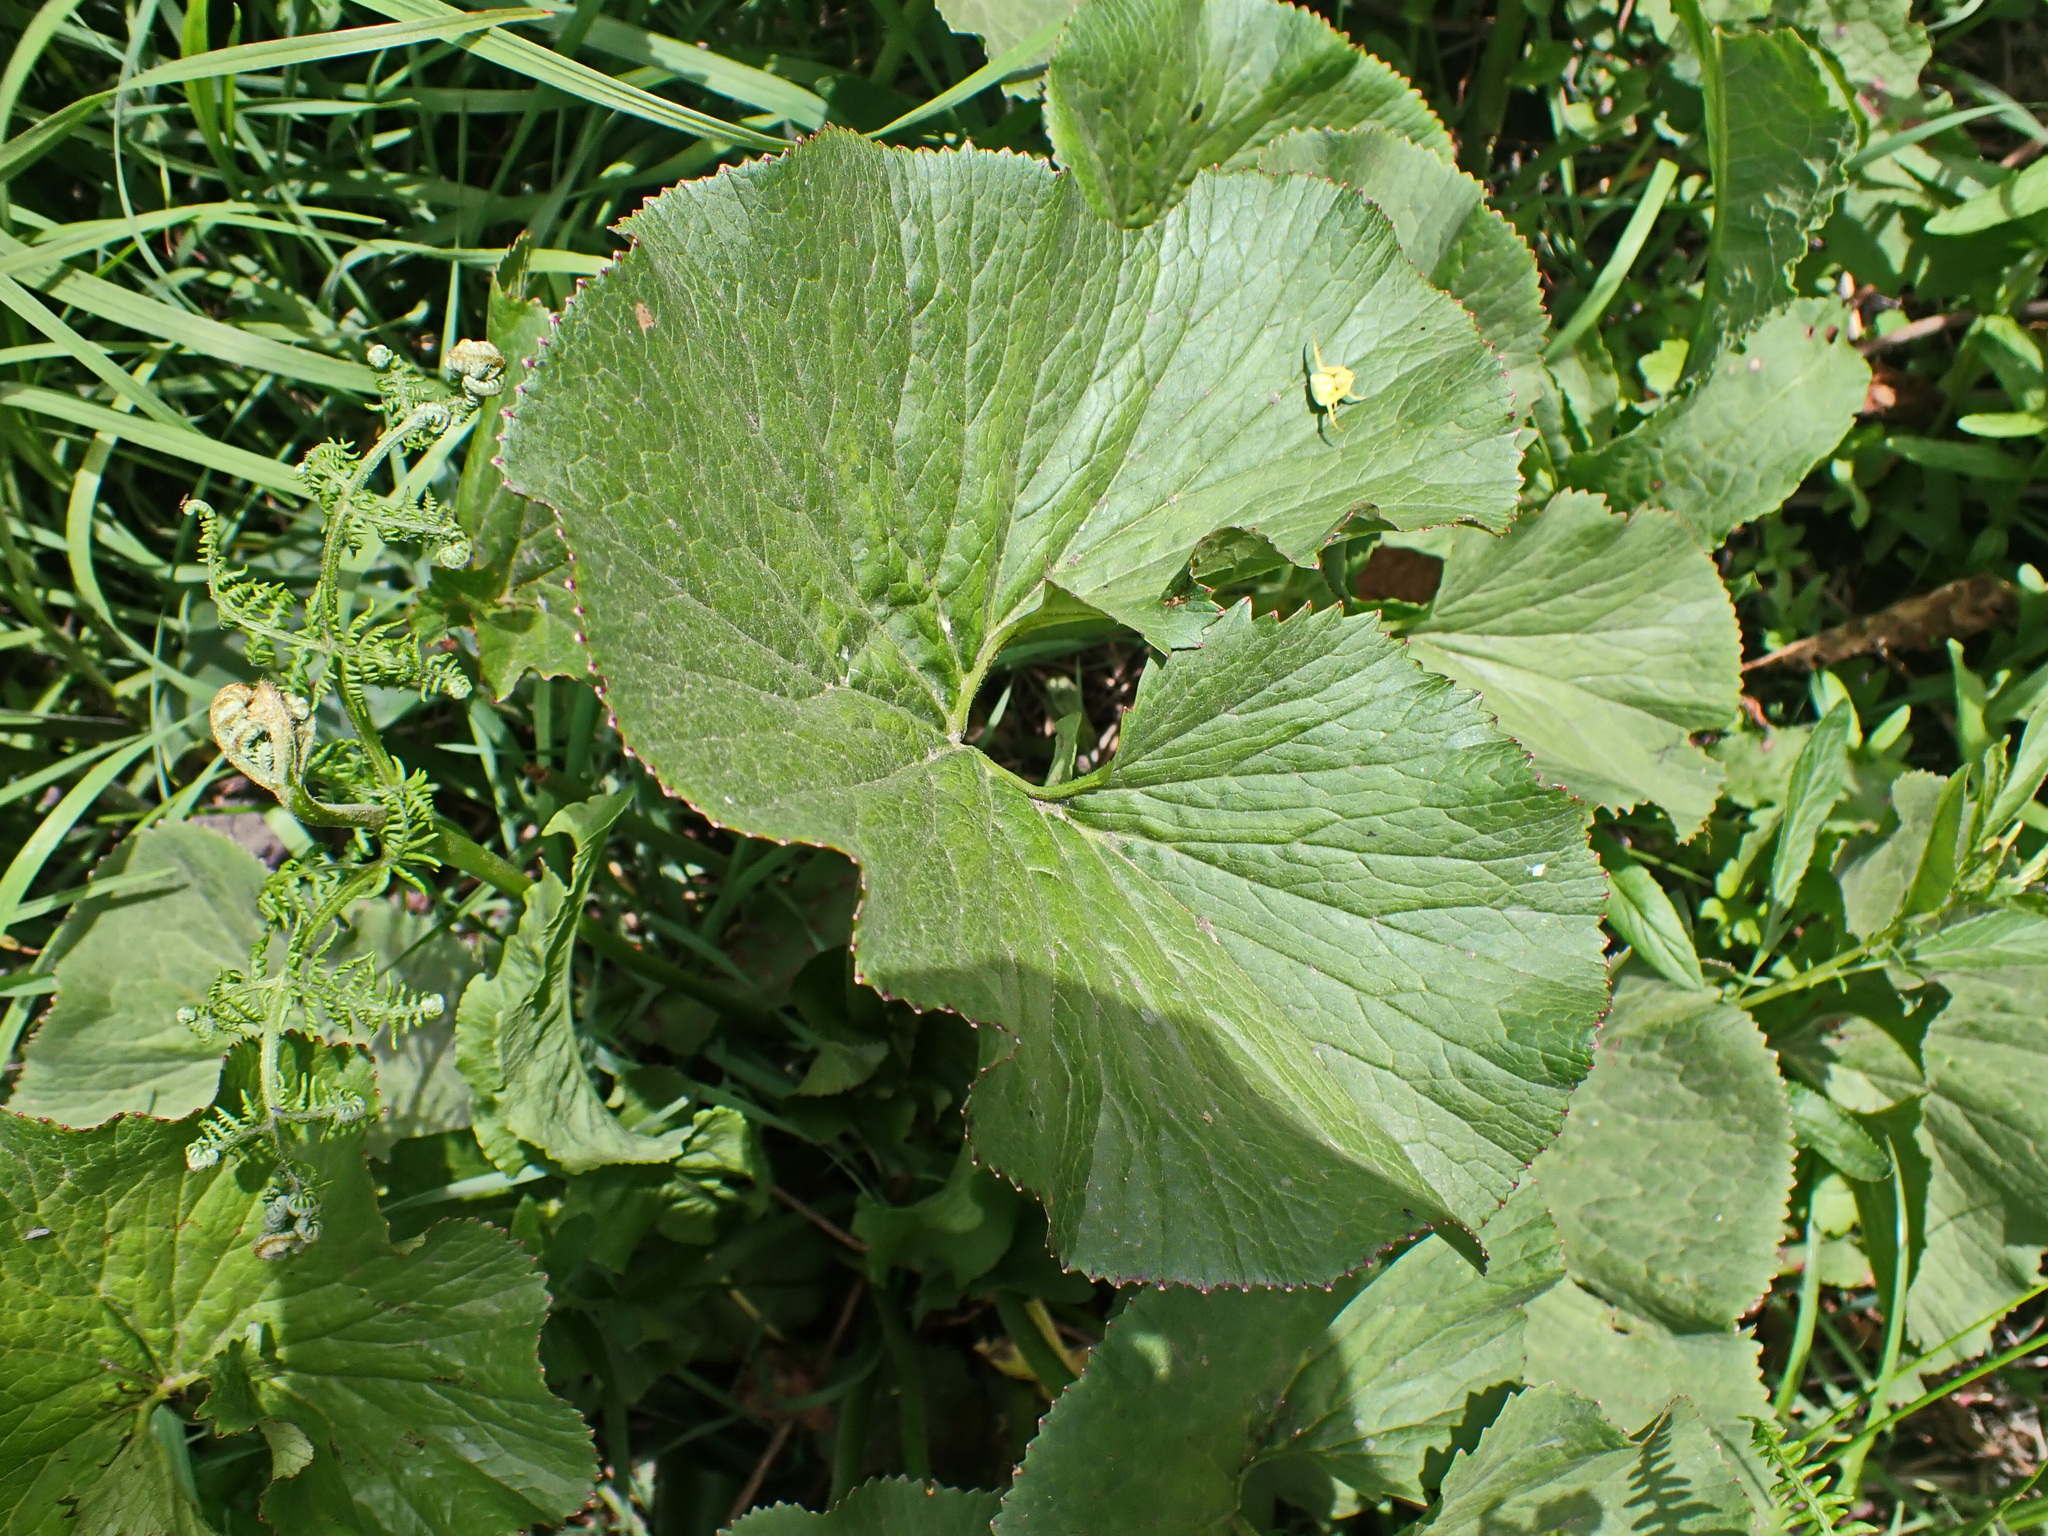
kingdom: Plantae
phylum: Tracheophyta
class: Magnoliopsida
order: Gunnerales
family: Gunneraceae
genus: Gunnera
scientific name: Gunnera perpensa
